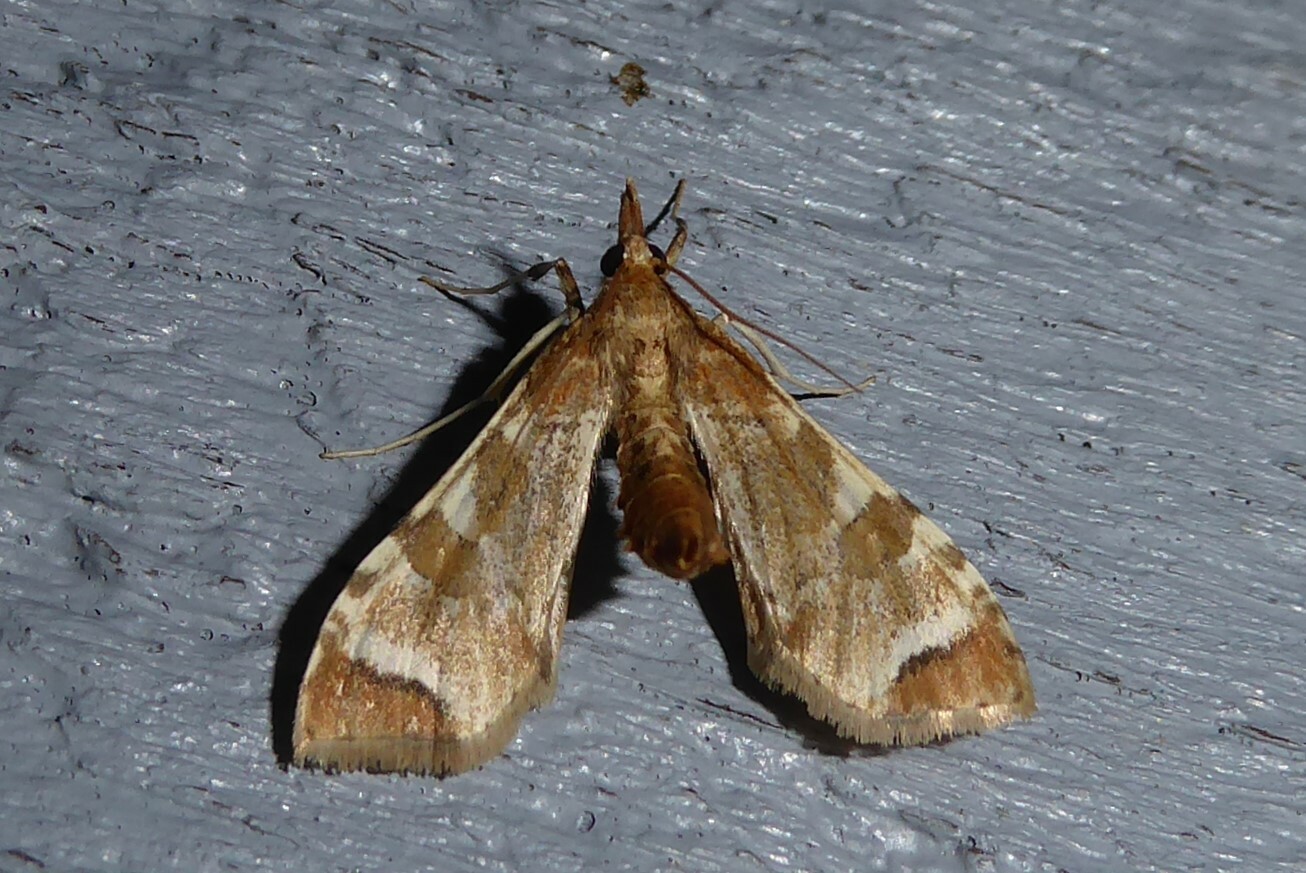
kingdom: Animalia
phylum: Arthropoda
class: Insecta
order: Lepidoptera
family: Crambidae
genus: Sceliodes
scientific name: Sceliodes cordalis
